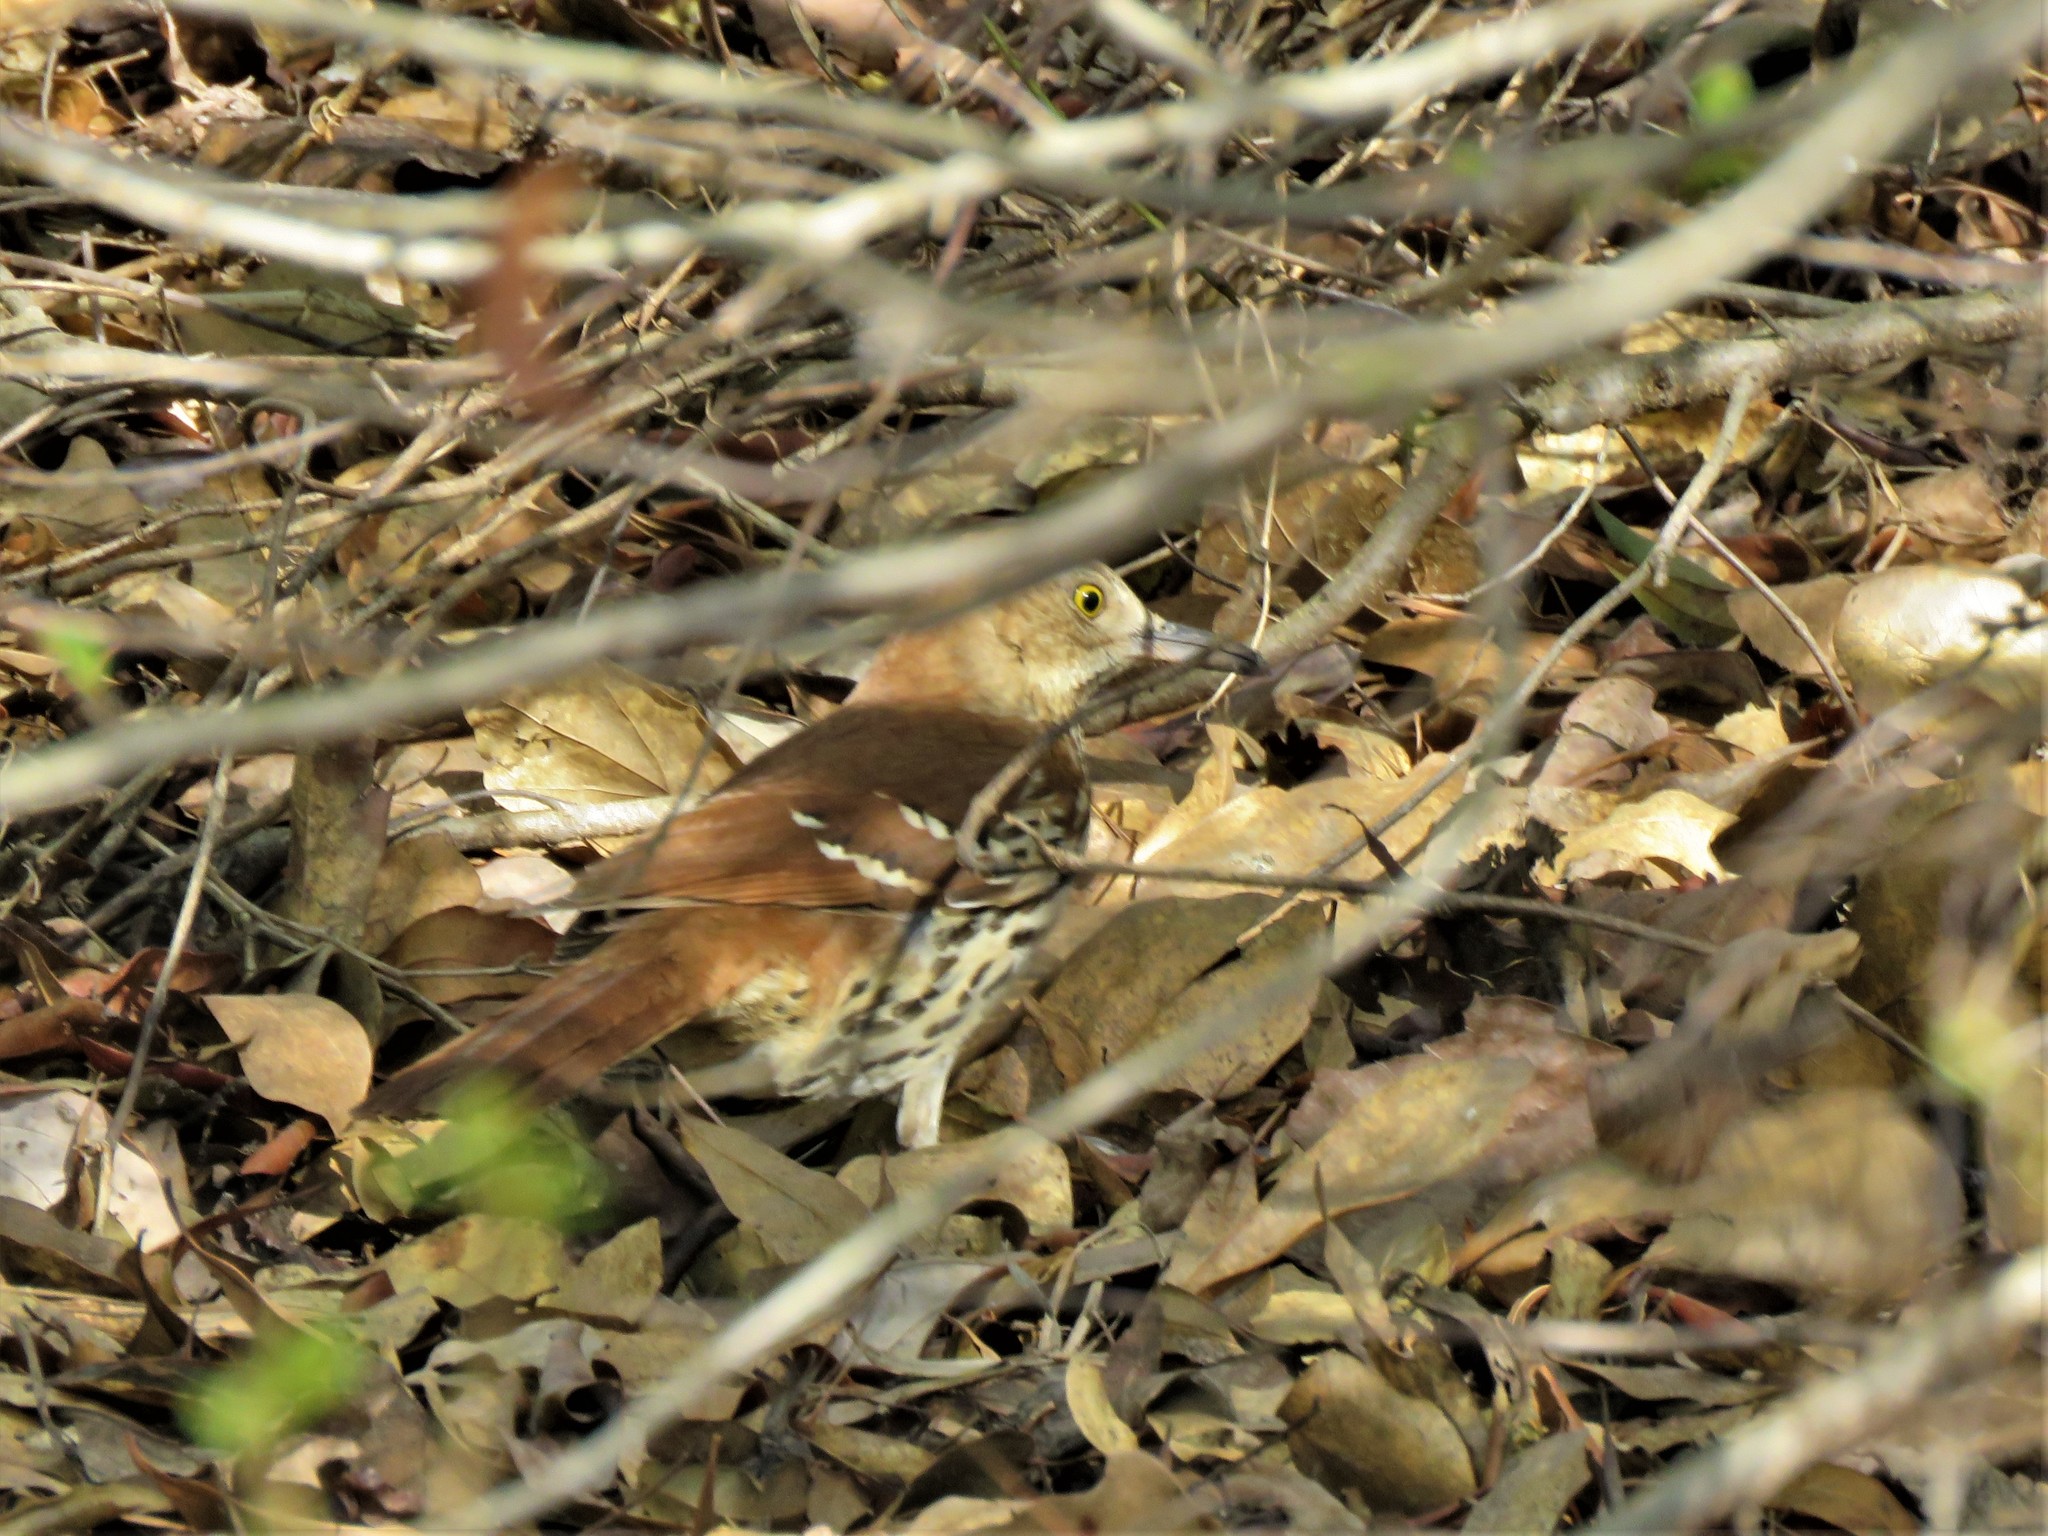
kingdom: Animalia
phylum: Chordata
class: Aves
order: Passeriformes
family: Mimidae
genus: Toxostoma
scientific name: Toxostoma rufum
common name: Brown thrasher
